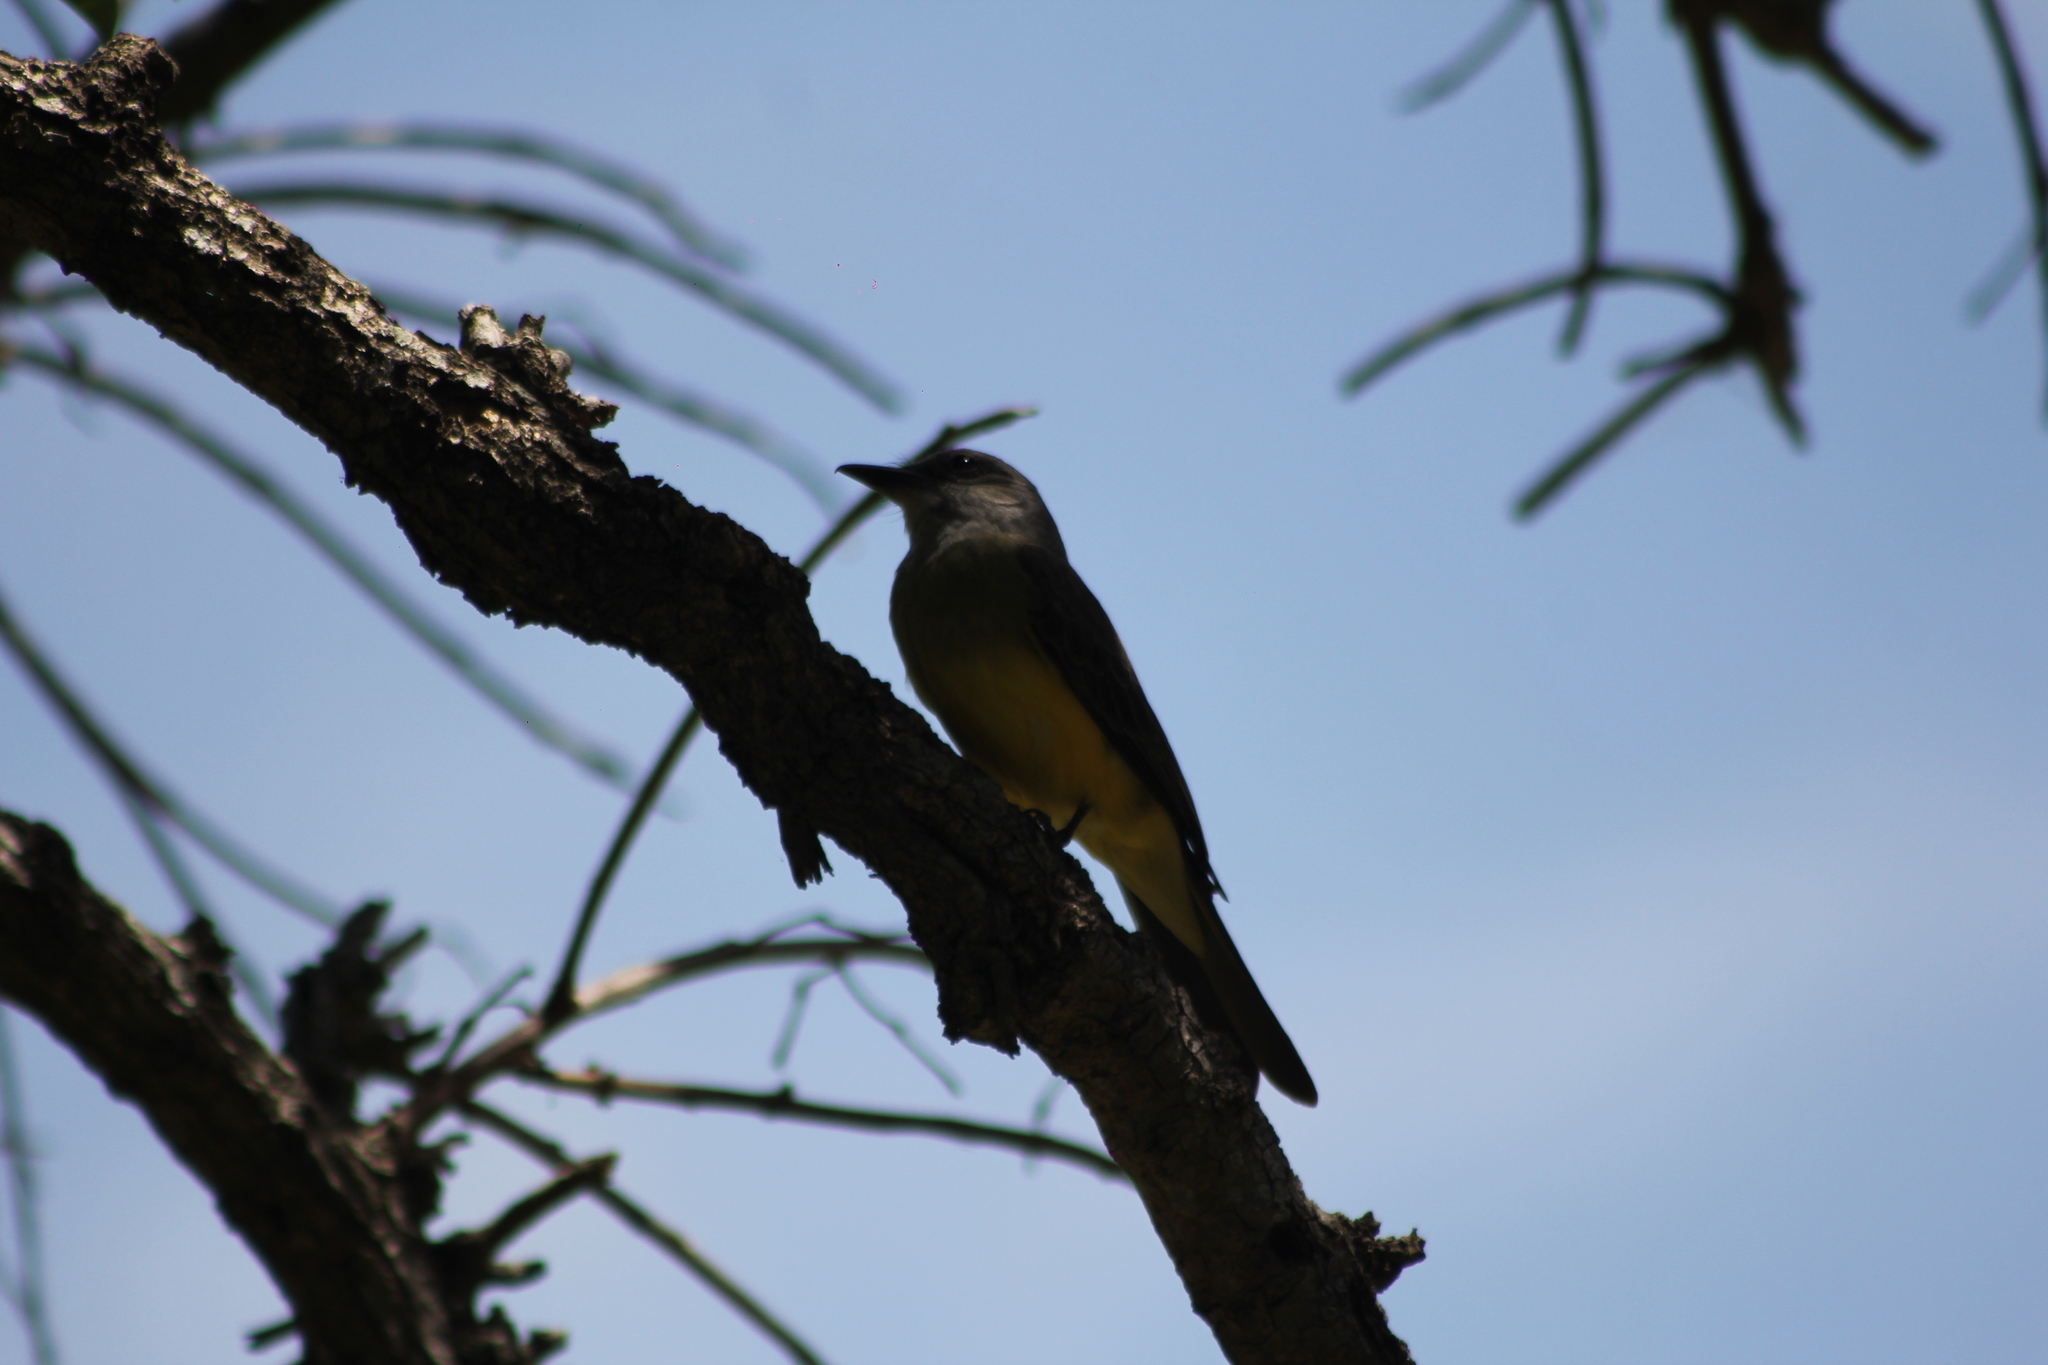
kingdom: Animalia
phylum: Chordata
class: Aves
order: Passeriformes
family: Tyrannidae
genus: Tyrannus
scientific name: Tyrannus melancholicus
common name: Tropical kingbird
